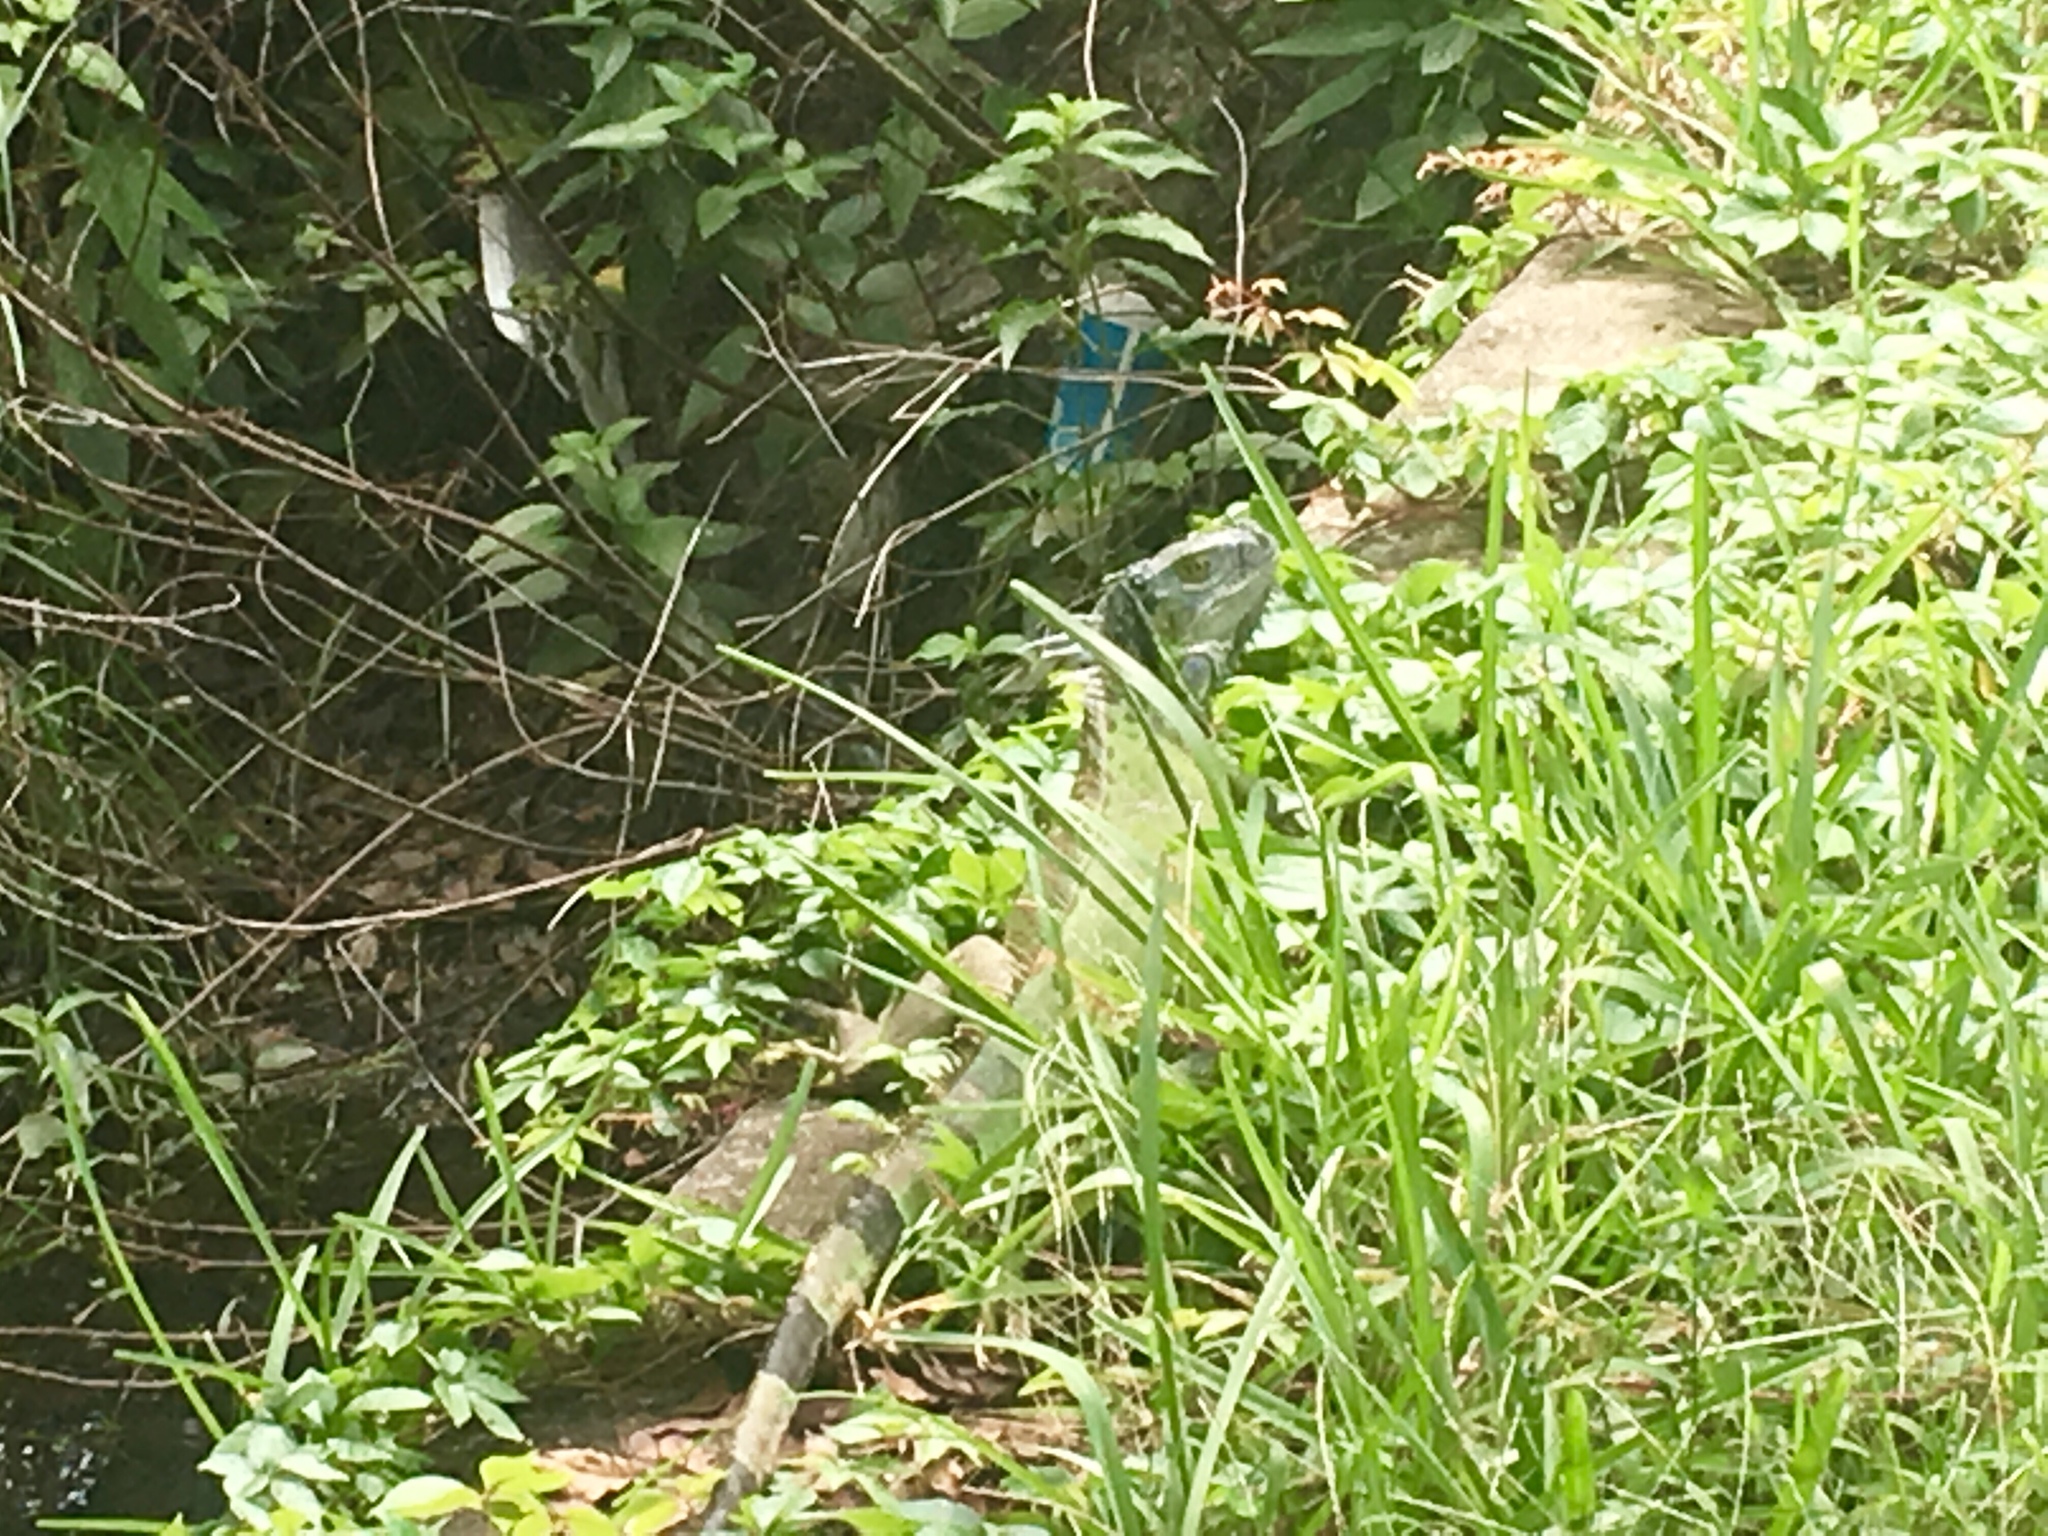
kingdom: Animalia
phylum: Chordata
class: Squamata
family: Iguanidae
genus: Iguana
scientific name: Iguana iguana
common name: Green iguana
